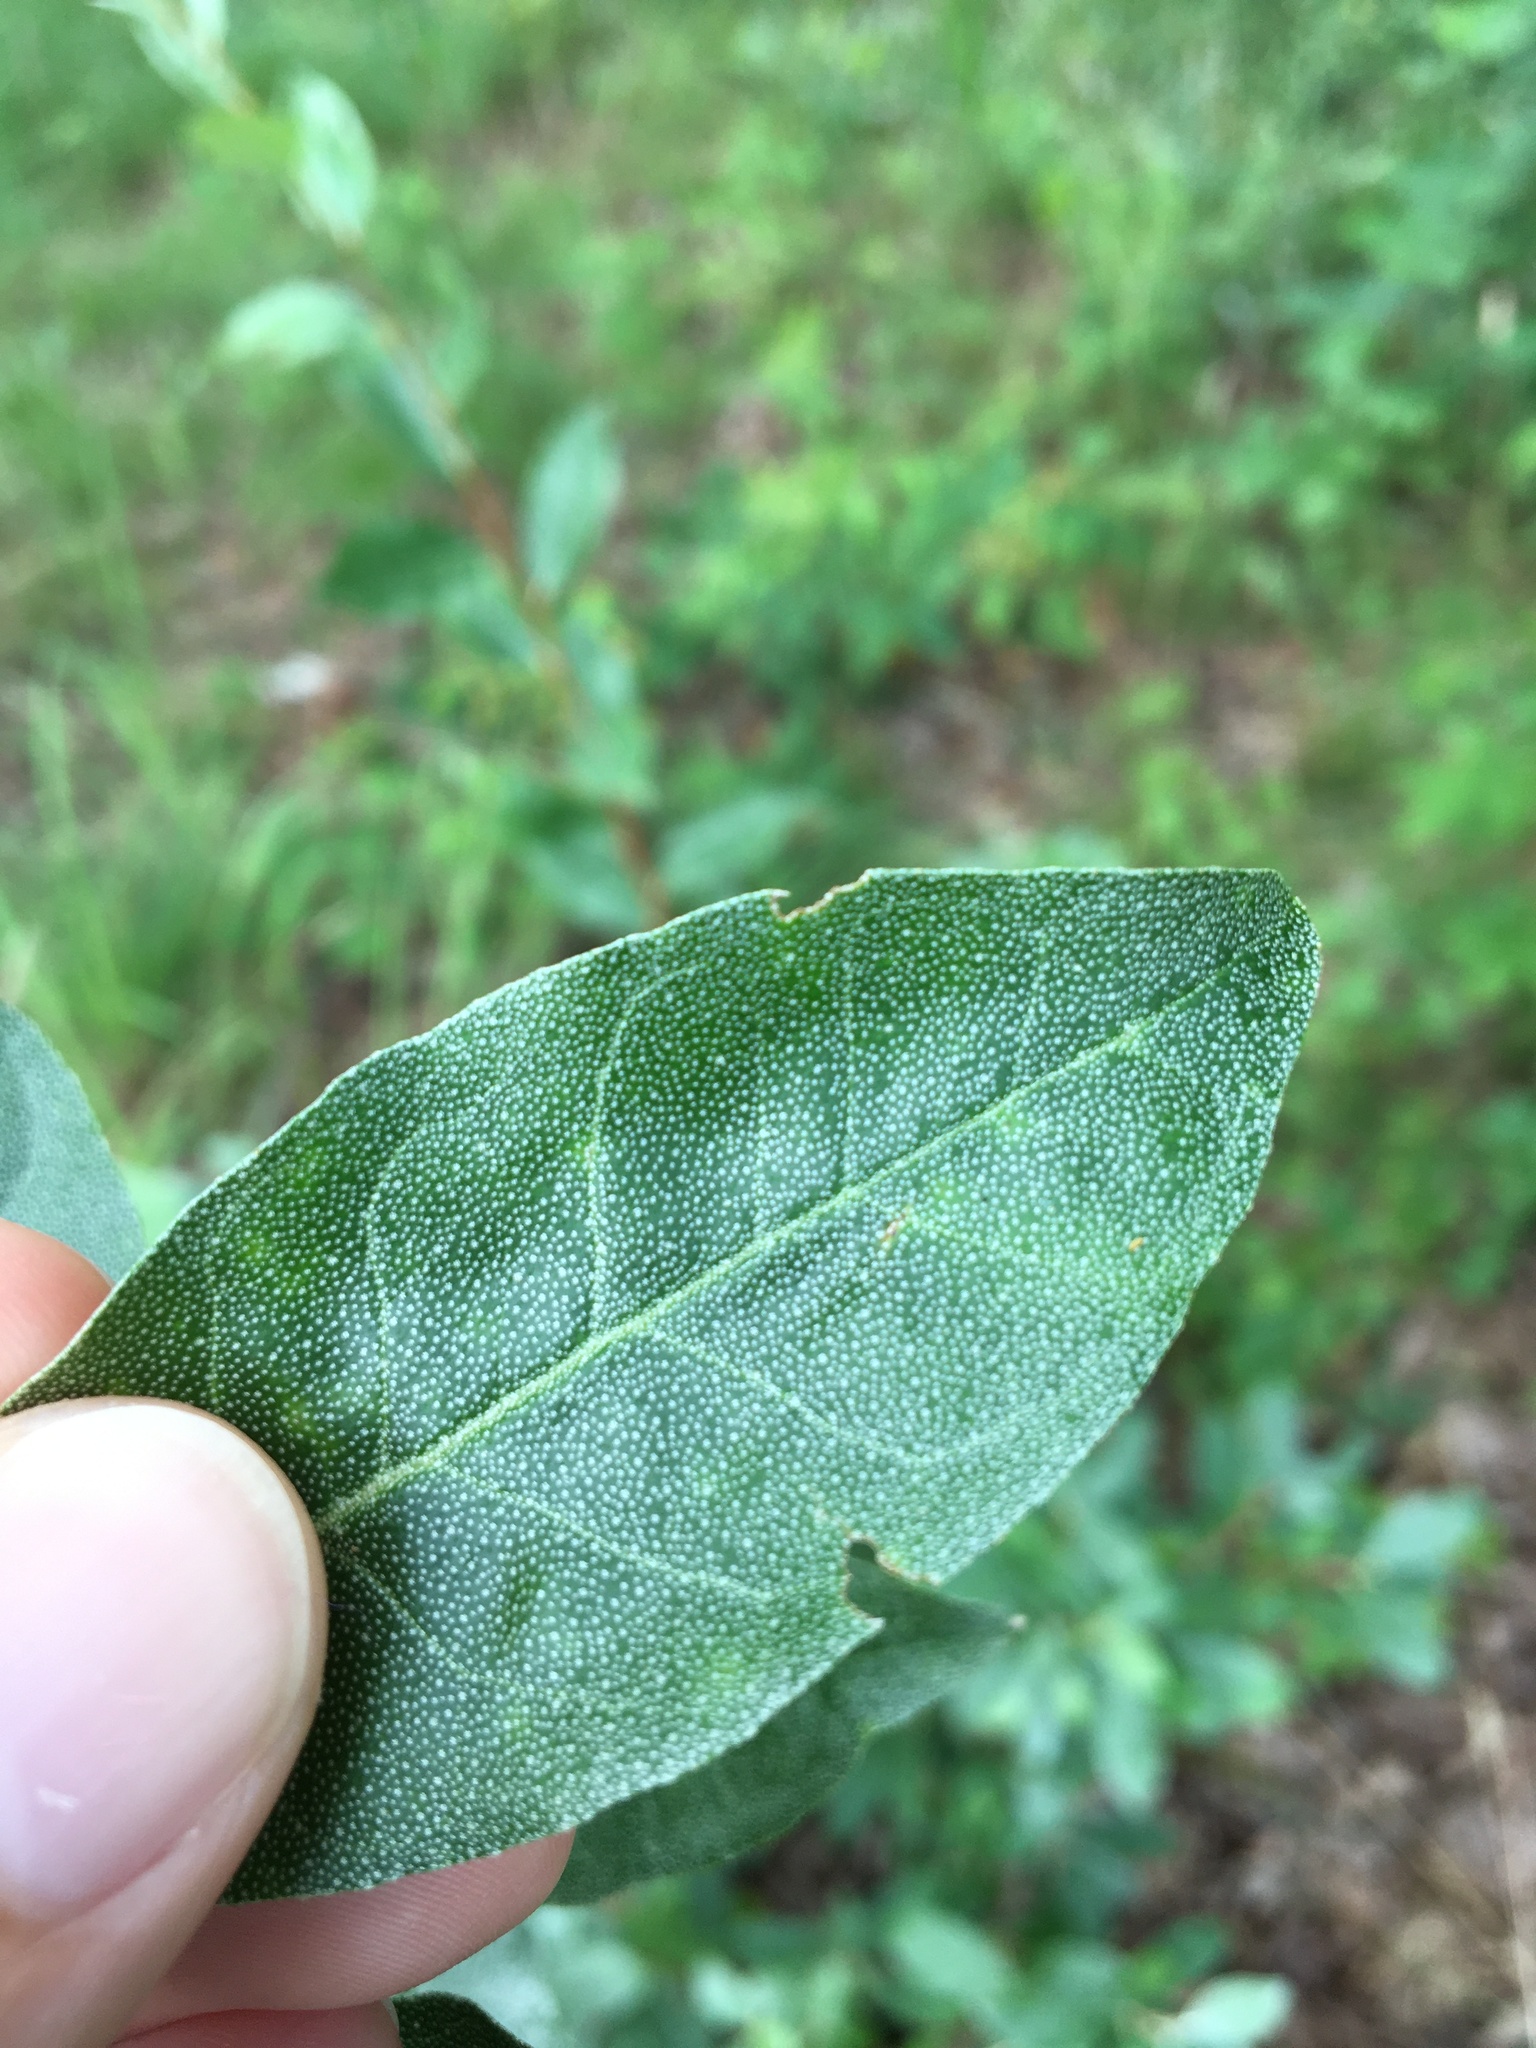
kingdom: Plantae
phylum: Tracheophyta
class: Magnoliopsida
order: Rosales
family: Elaeagnaceae
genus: Elaeagnus
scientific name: Elaeagnus umbellata
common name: Autumn olive
